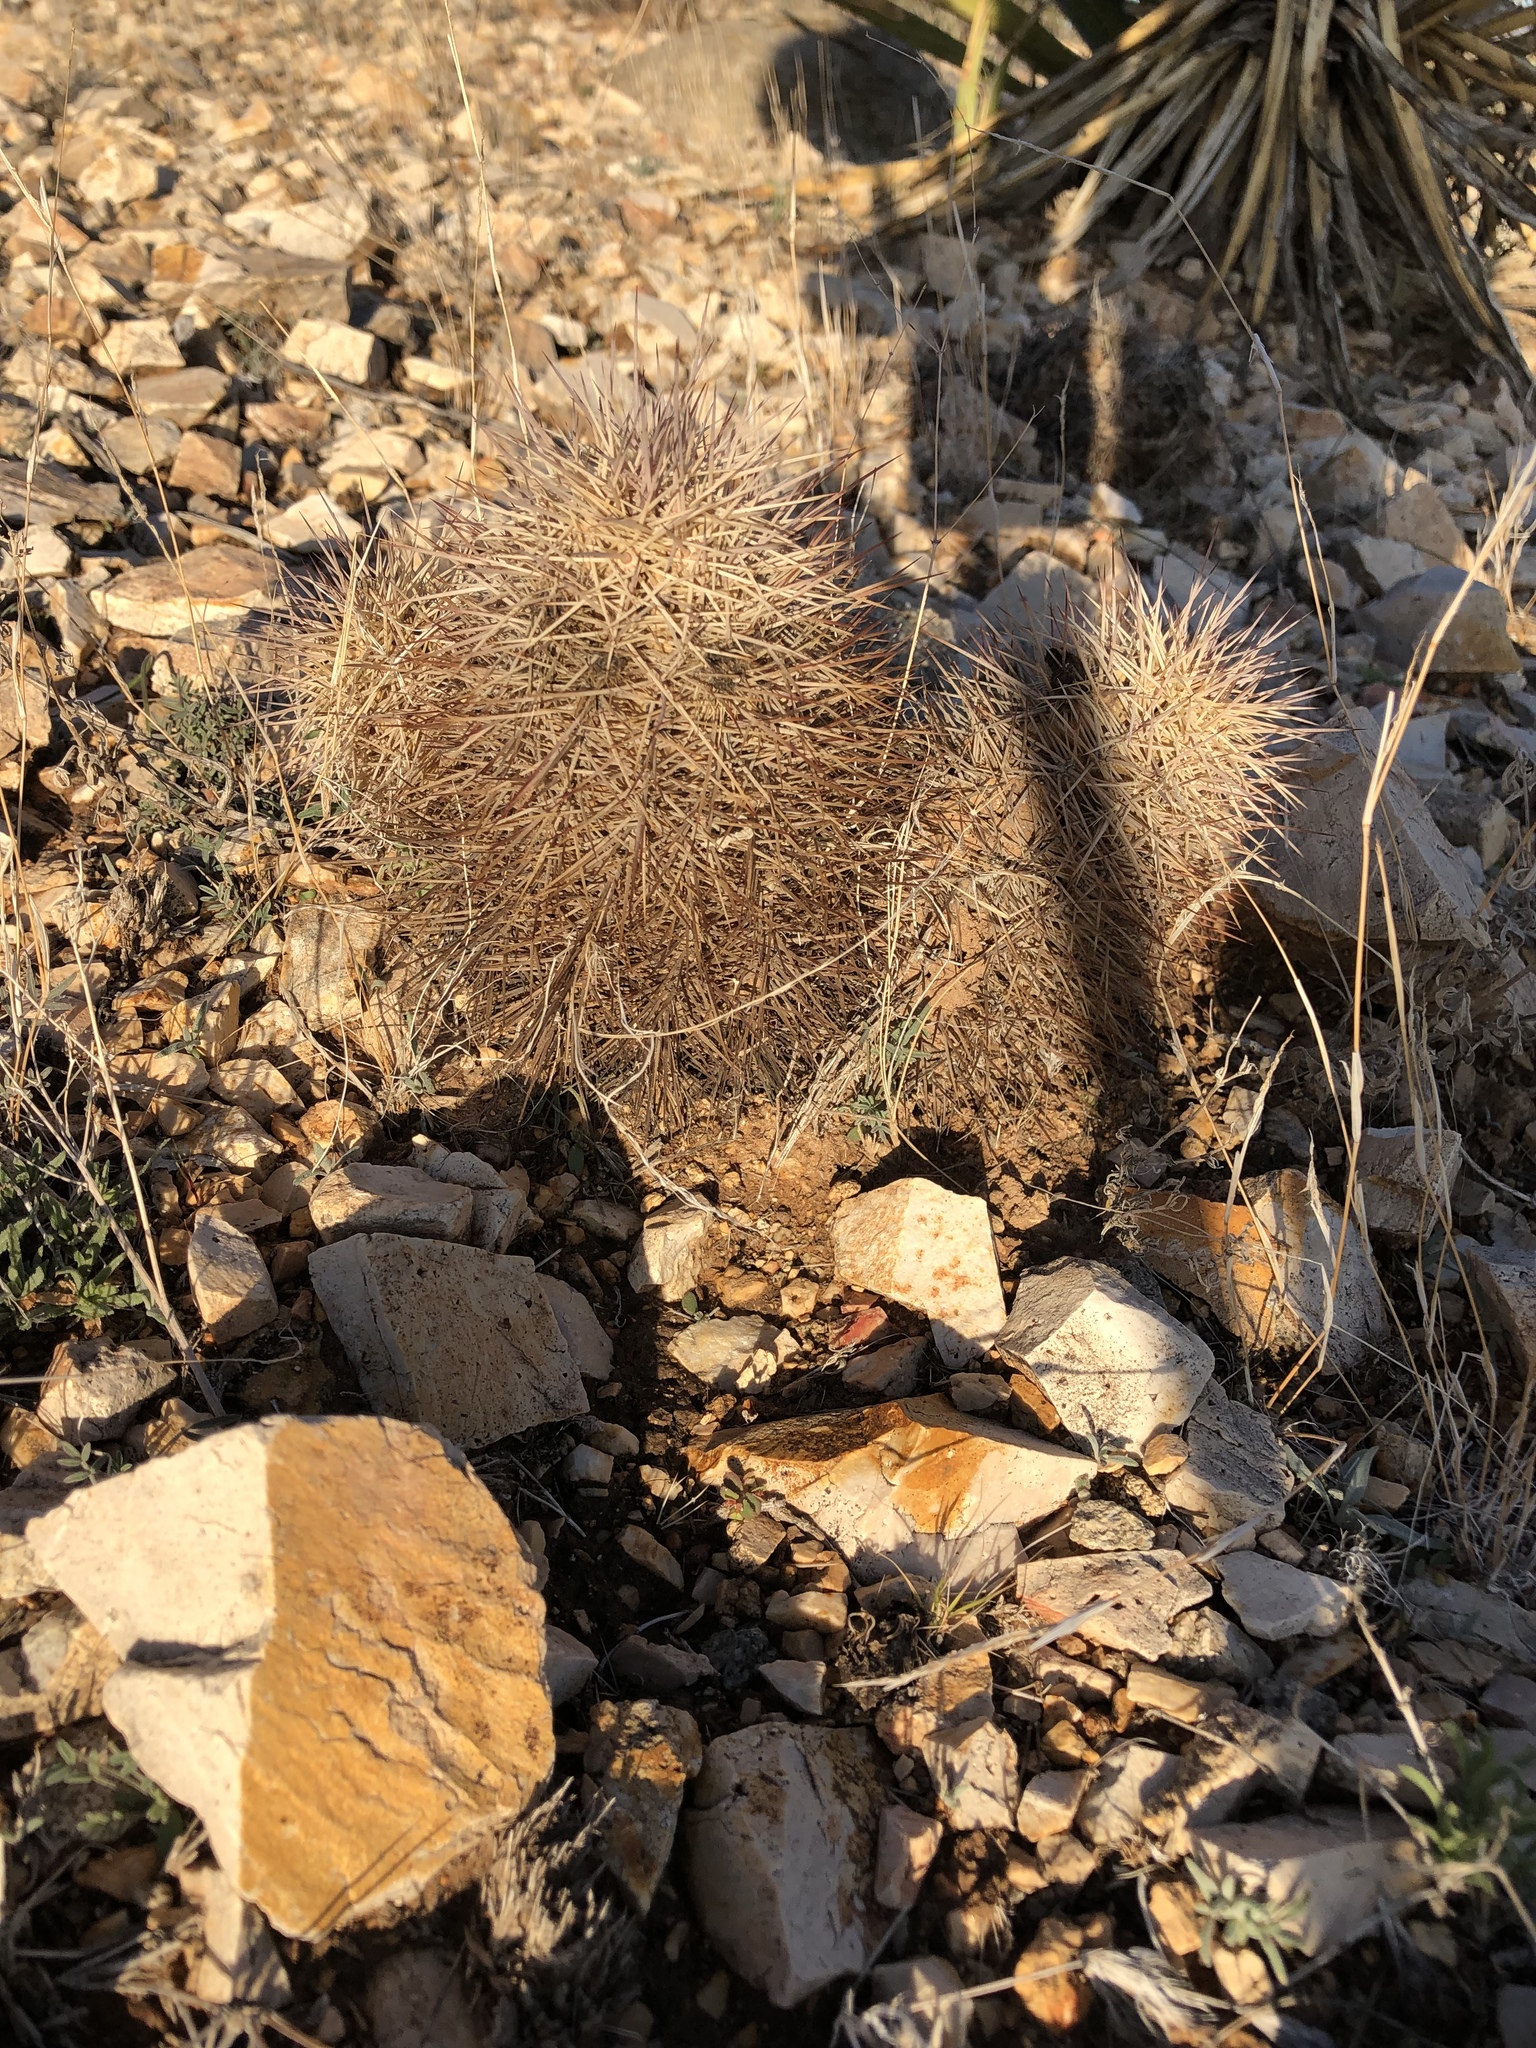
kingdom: Plantae
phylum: Tracheophyta
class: Magnoliopsida
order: Caryophyllales
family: Cactaceae
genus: Echinocereus
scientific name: Echinocereus coccineus
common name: Scarlet hedgehog cactus
